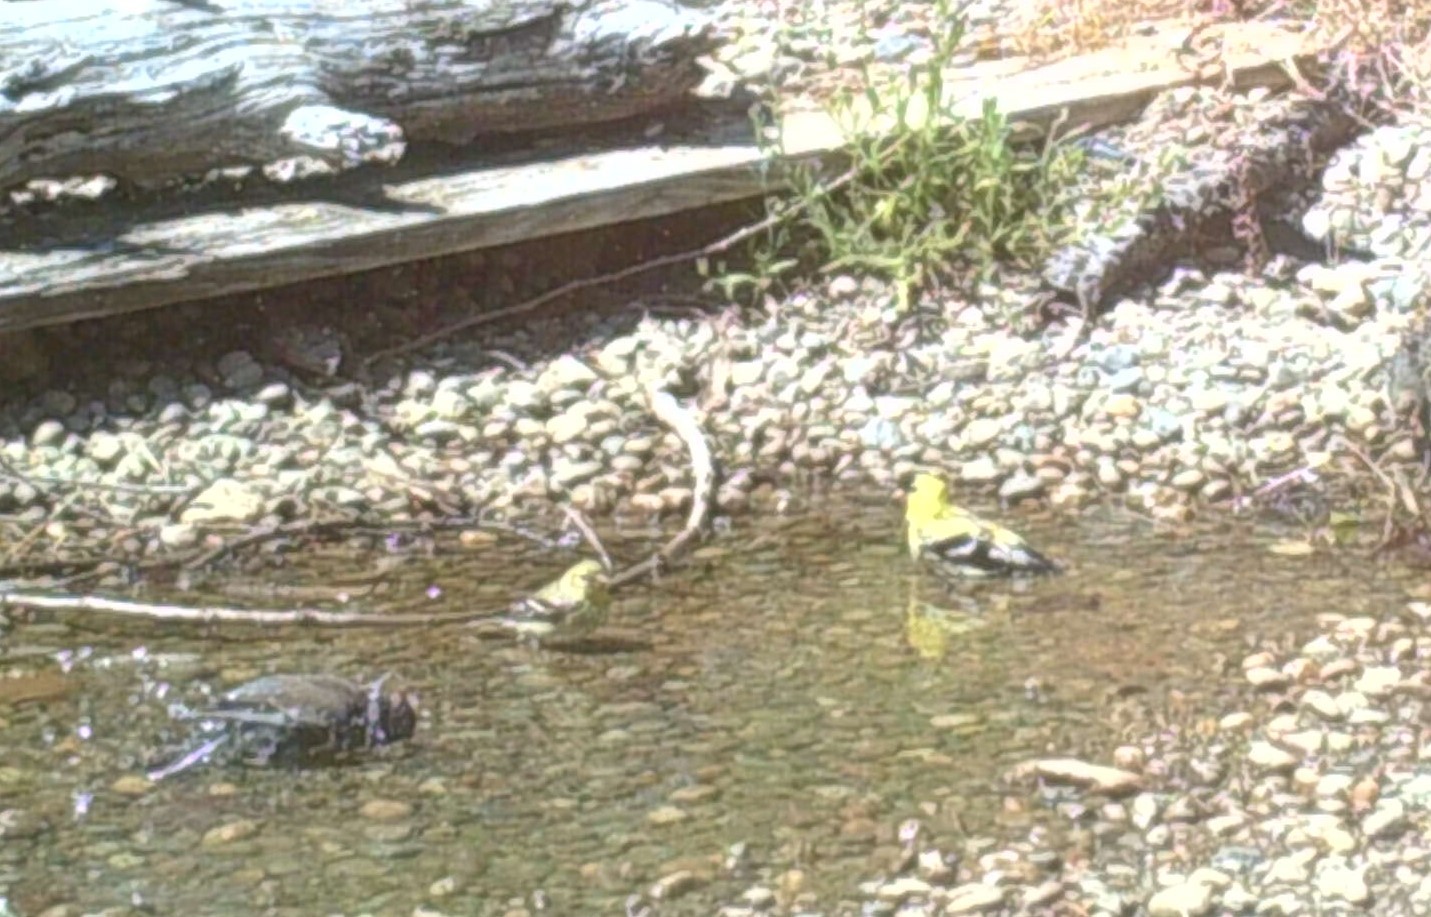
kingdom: Animalia
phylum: Chordata
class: Aves
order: Passeriformes
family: Fringillidae
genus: Spinus
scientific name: Spinus tristis
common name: American goldfinch
